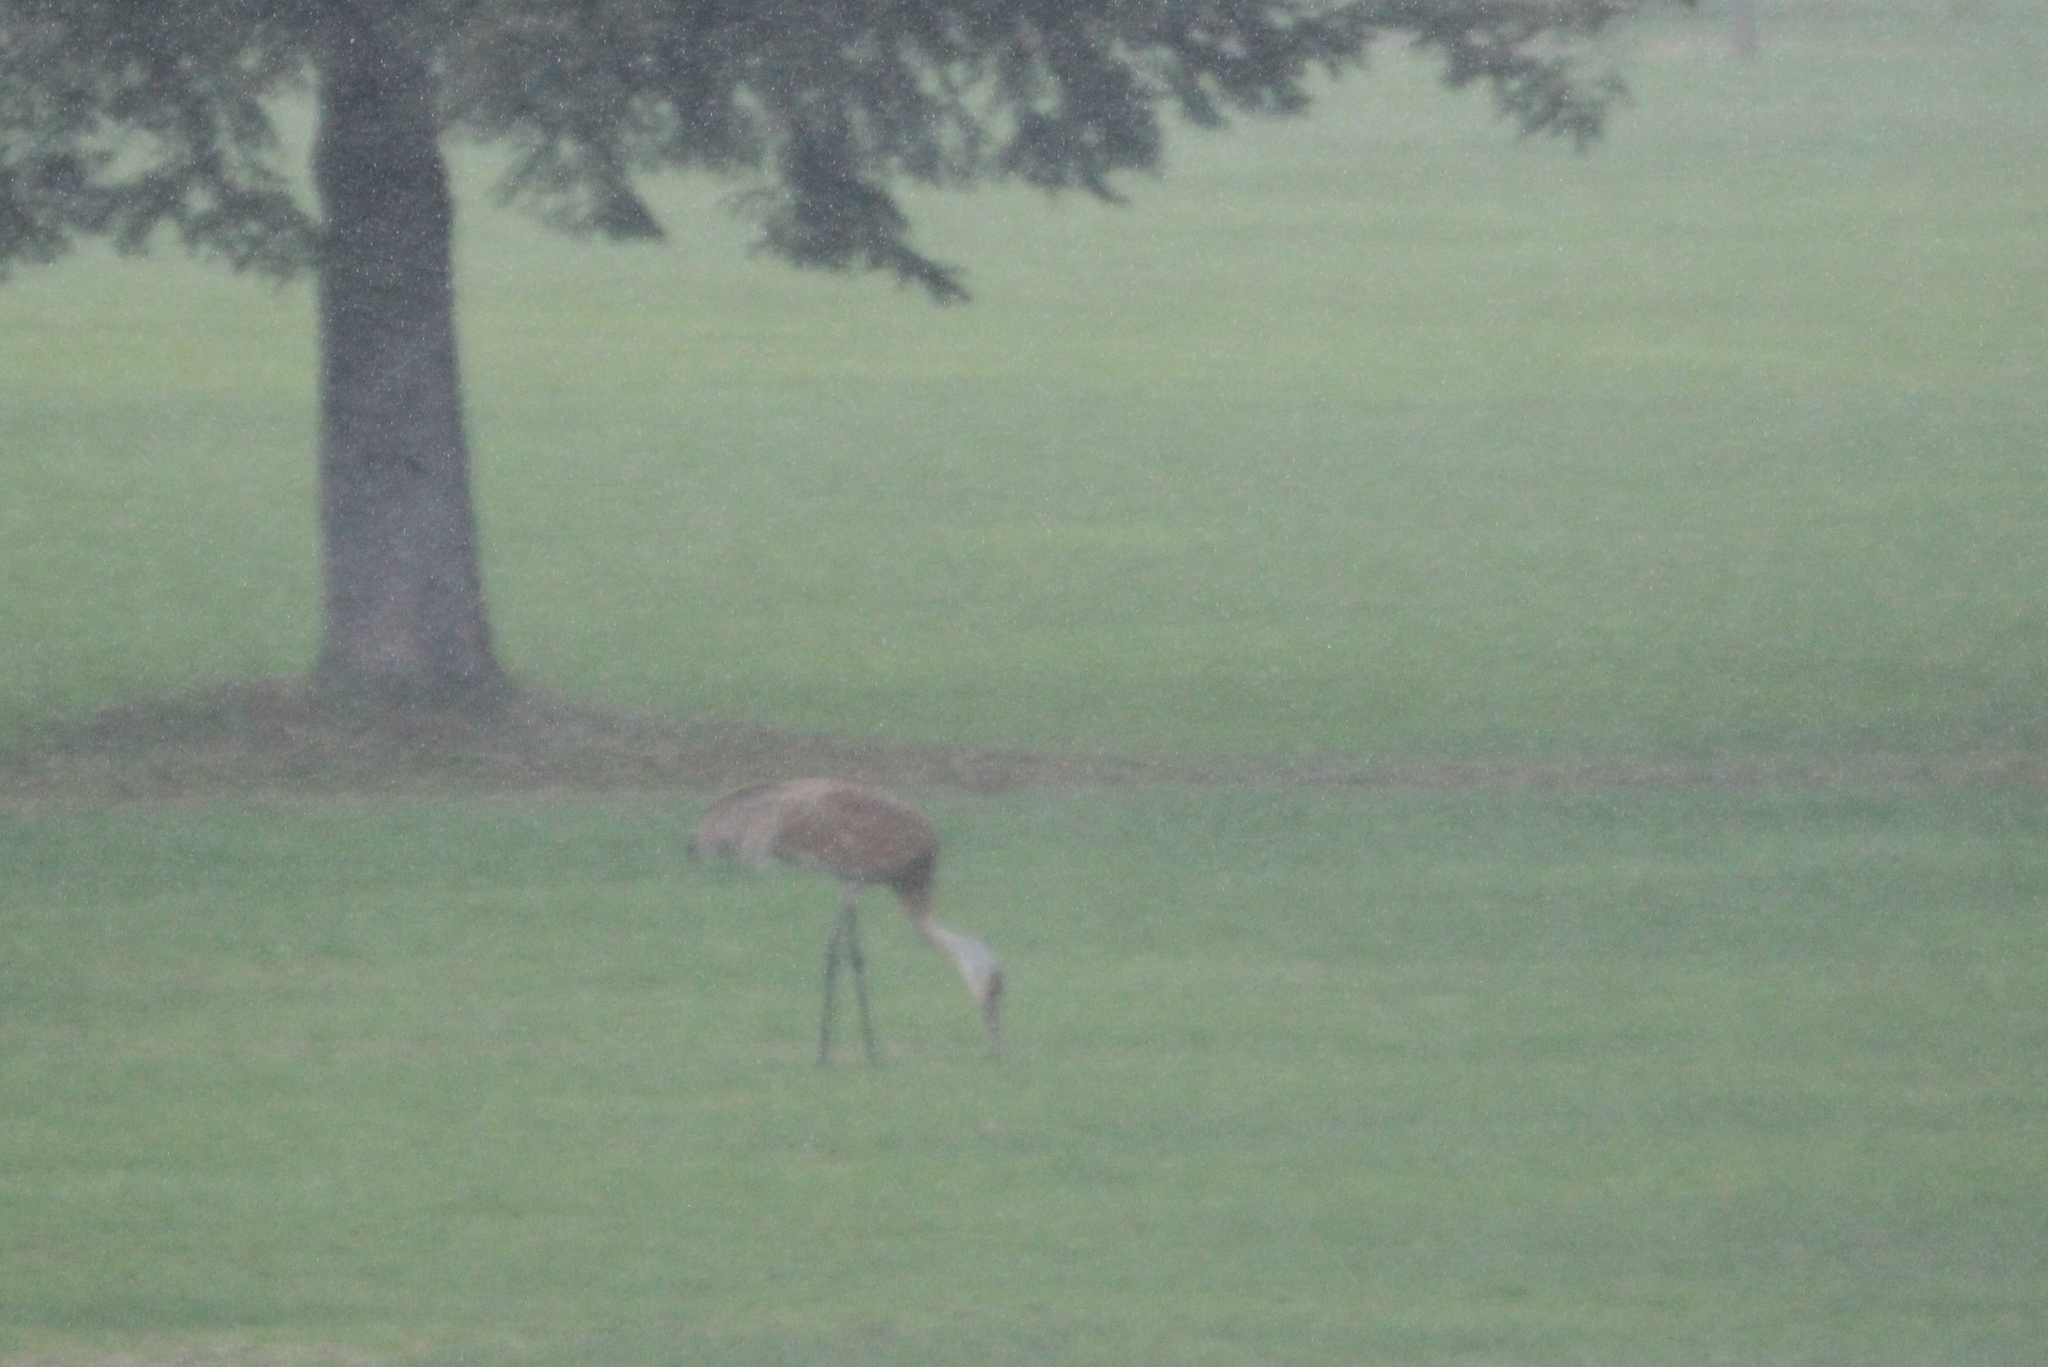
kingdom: Animalia
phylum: Chordata
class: Aves
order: Gruiformes
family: Gruidae
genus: Grus
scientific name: Grus canadensis
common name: Sandhill crane
